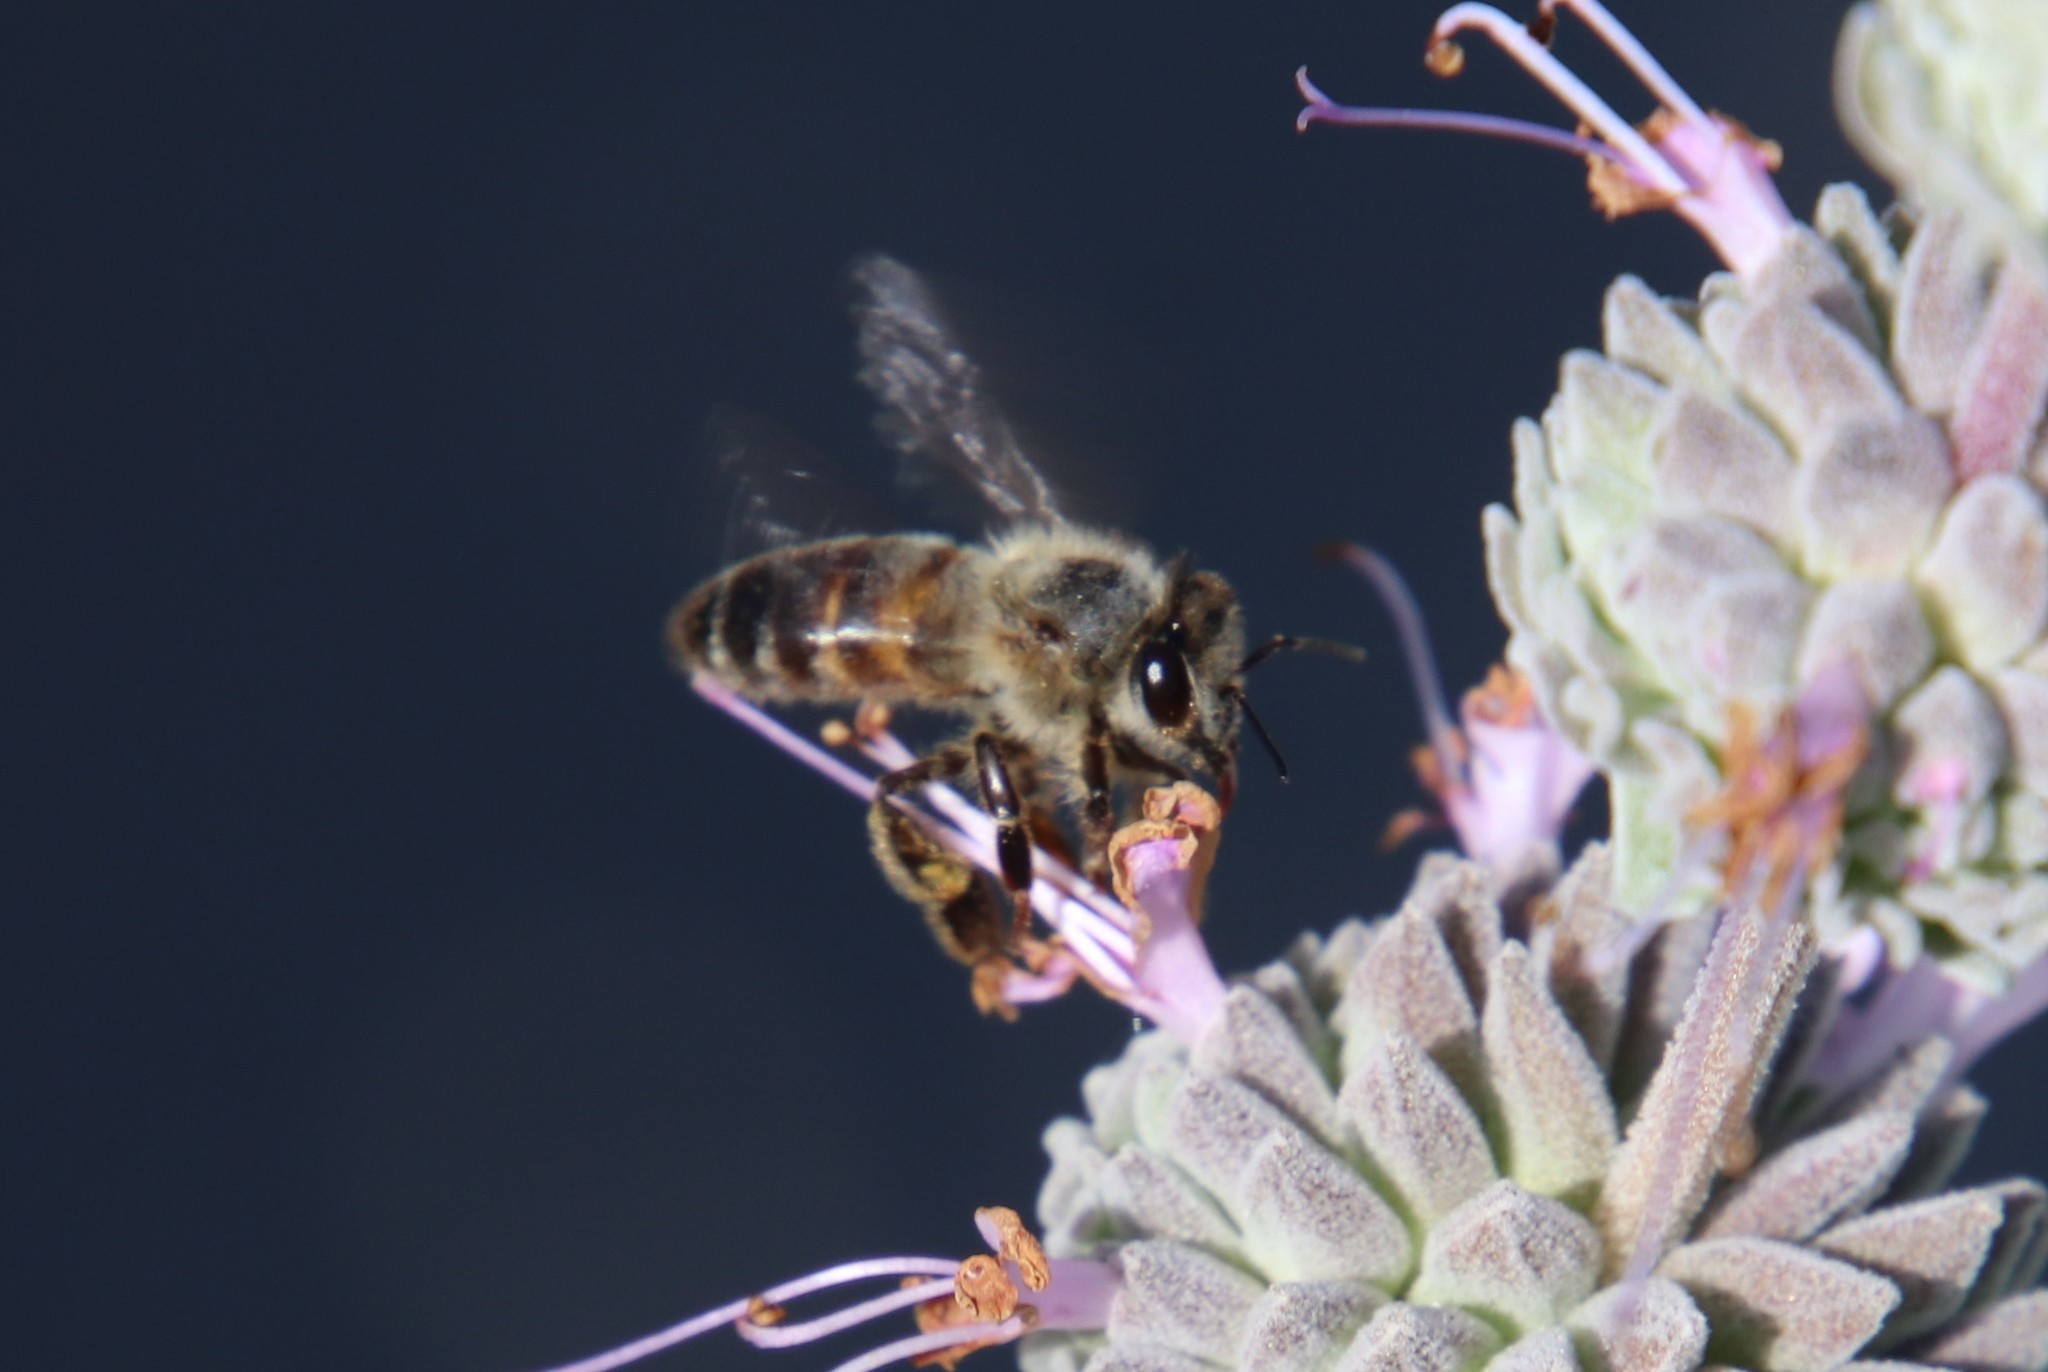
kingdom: Animalia
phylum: Arthropoda
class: Insecta
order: Hymenoptera
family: Apidae
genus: Apis
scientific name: Apis mellifera
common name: Honey bee
